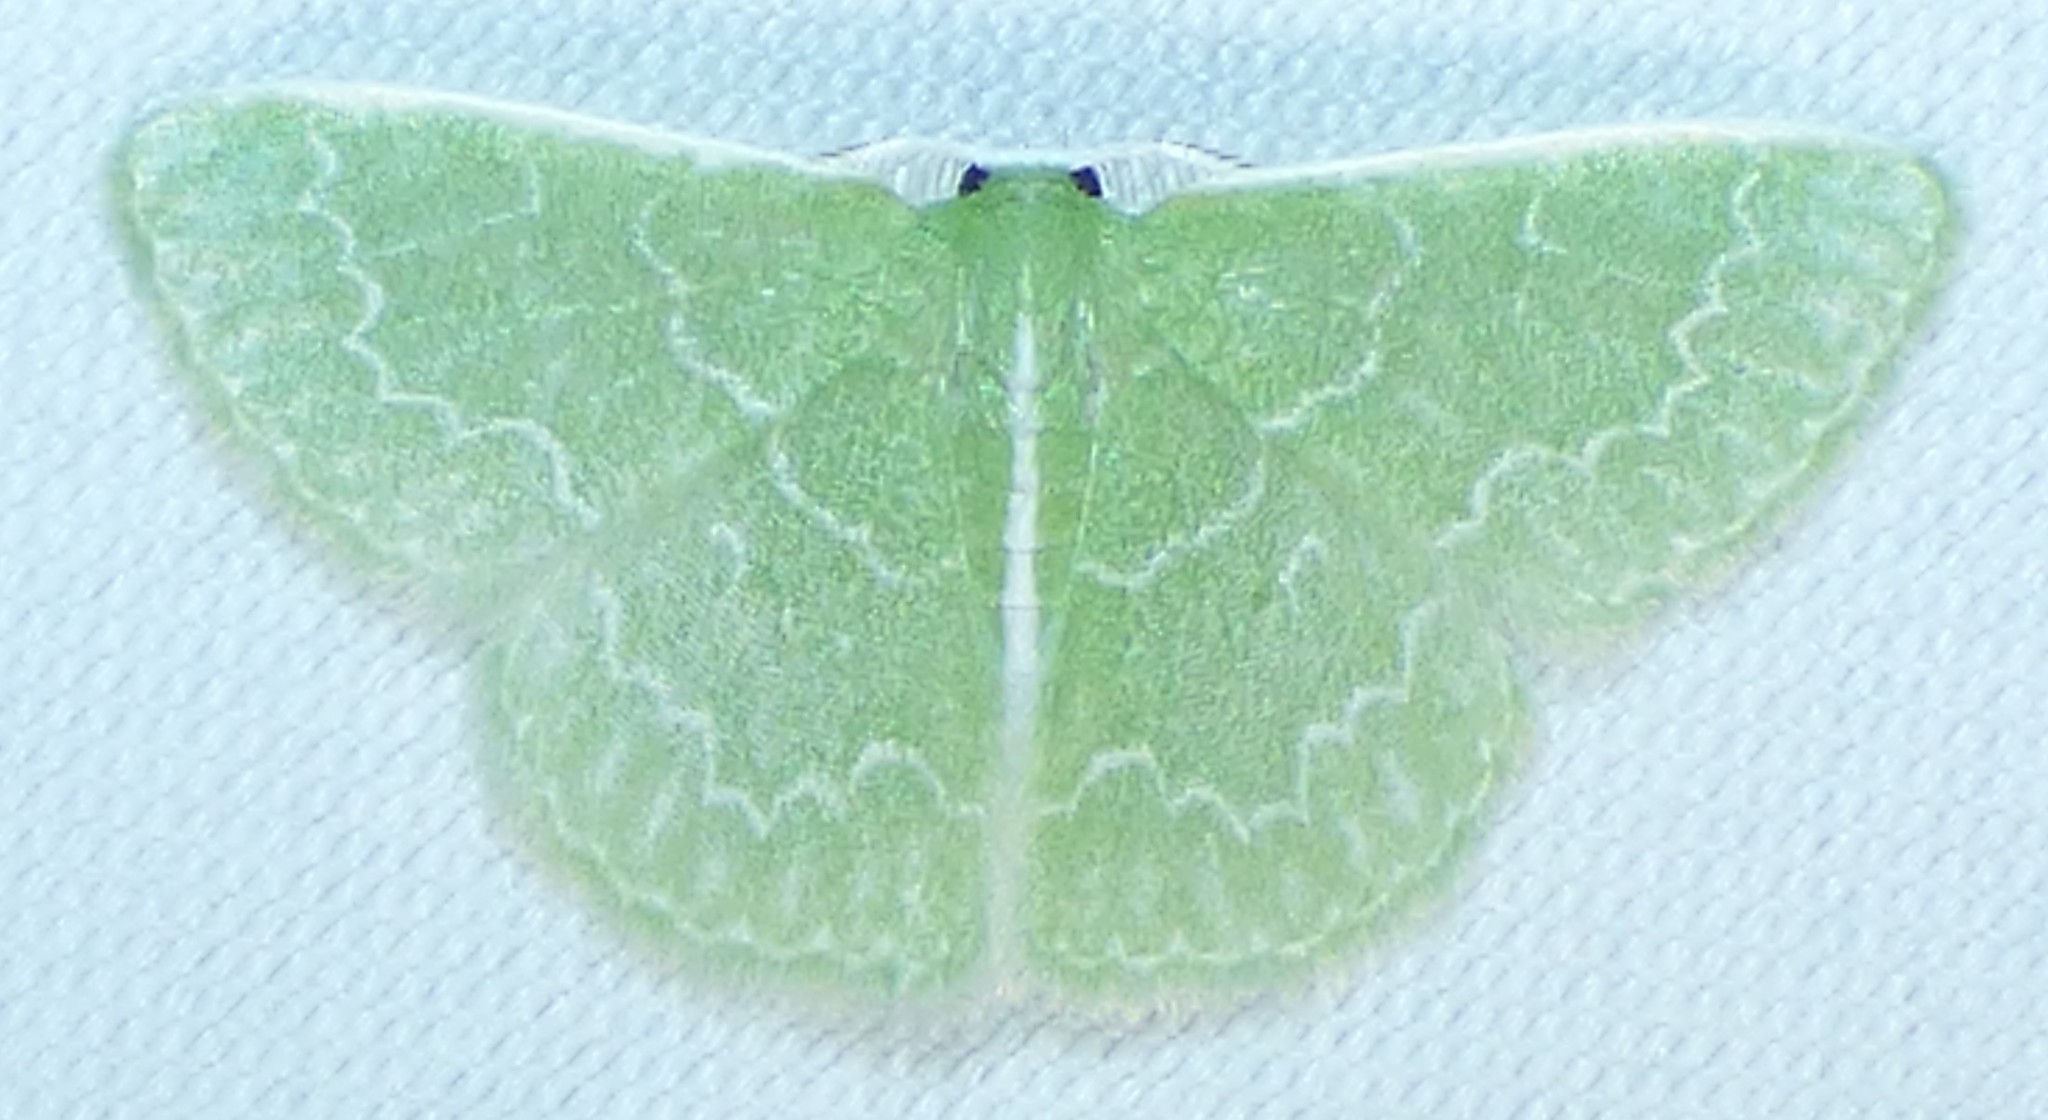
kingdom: Animalia
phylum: Arthropoda
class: Insecta
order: Lepidoptera
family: Geometridae
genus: Synchlora
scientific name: Synchlora frondaria
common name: Southern emerald
